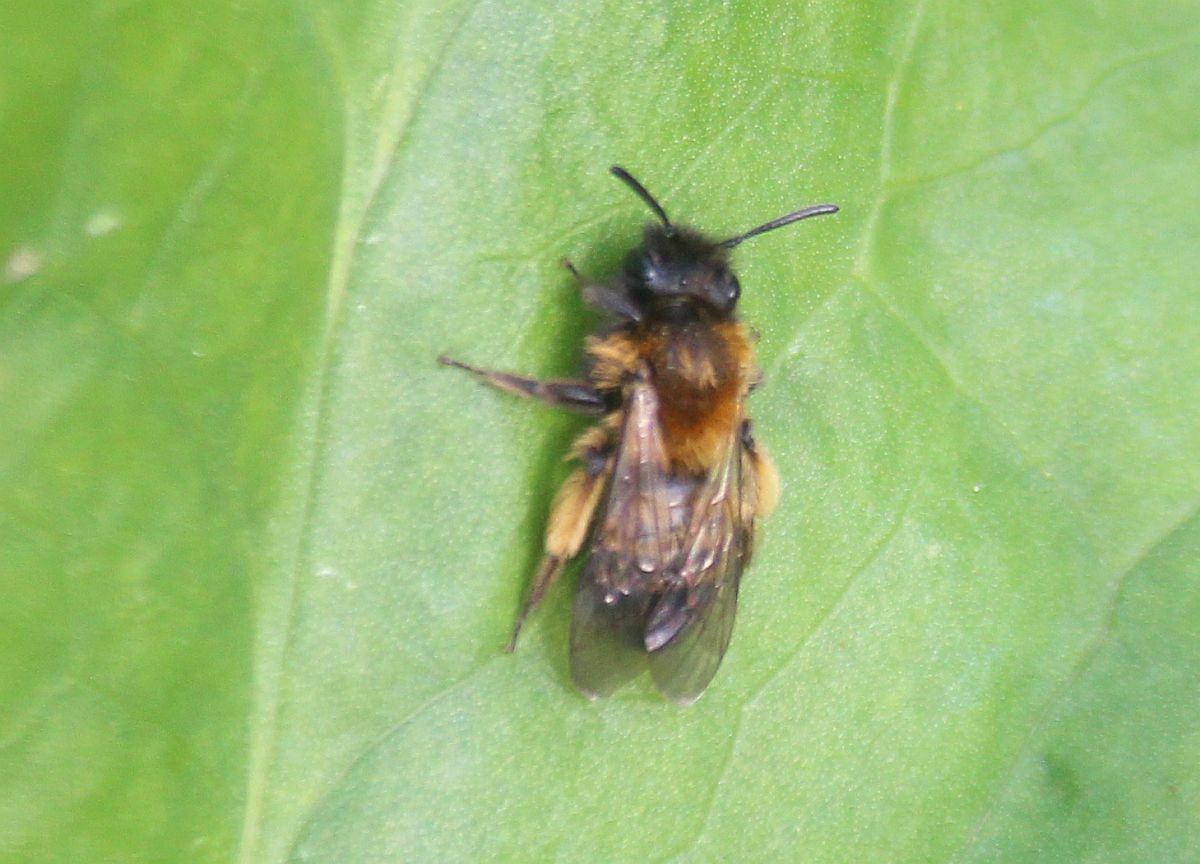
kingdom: Animalia
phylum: Arthropoda
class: Insecta
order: Hymenoptera
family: Andrenidae
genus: Andrena
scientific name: Andrena bicolor
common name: Gwynne's mining bee
